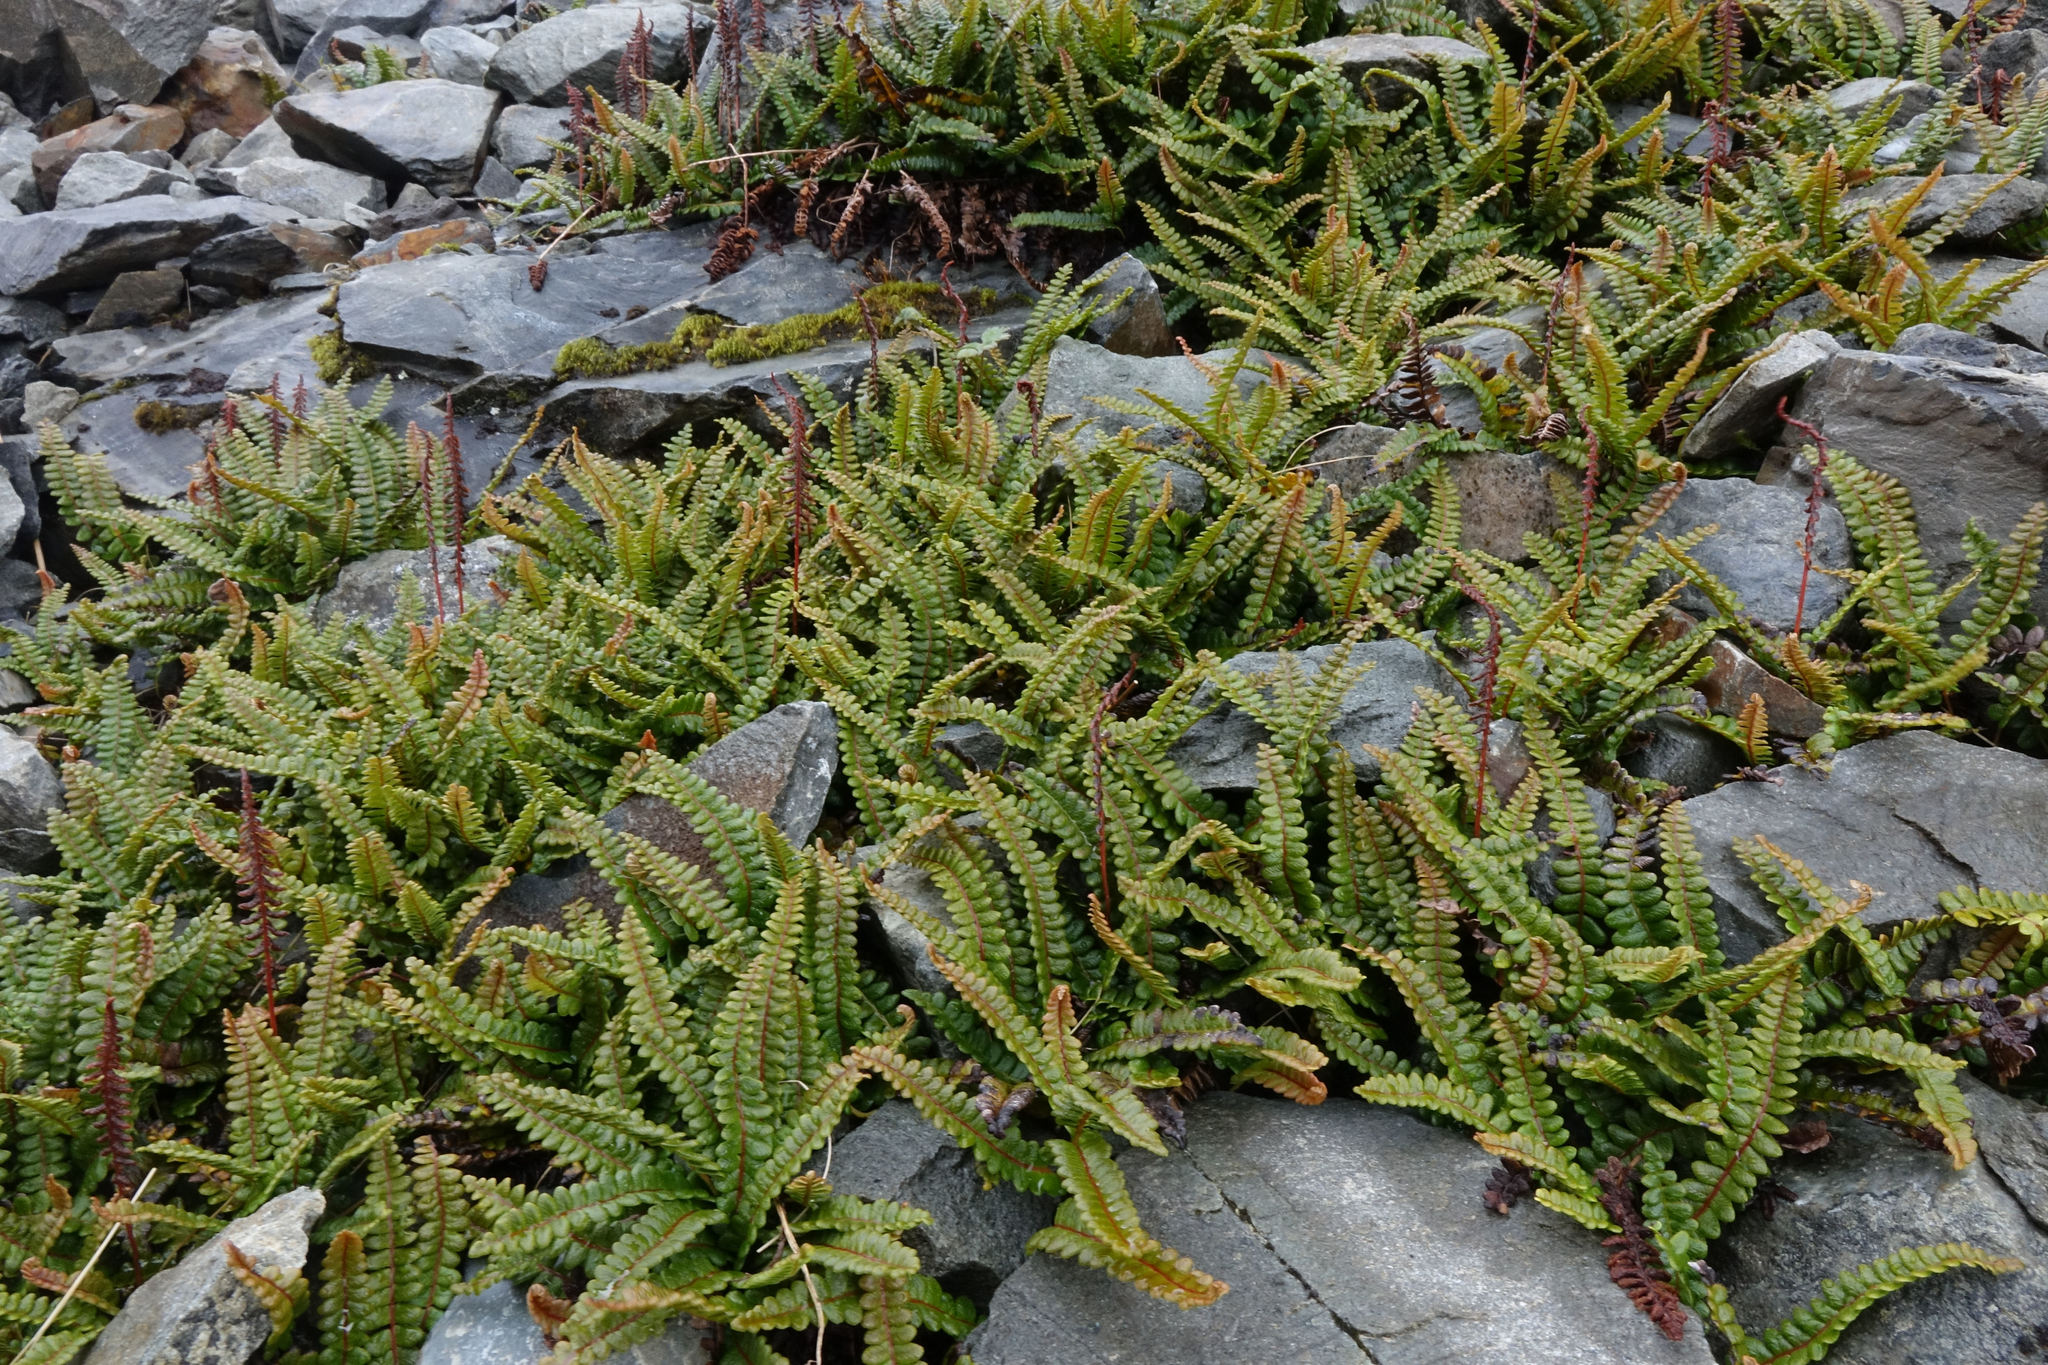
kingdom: Plantae
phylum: Tracheophyta
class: Polypodiopsida
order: Polypodiales
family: Blechnaceae
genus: Austroblechnum
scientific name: Austroblechnum penna-marina
